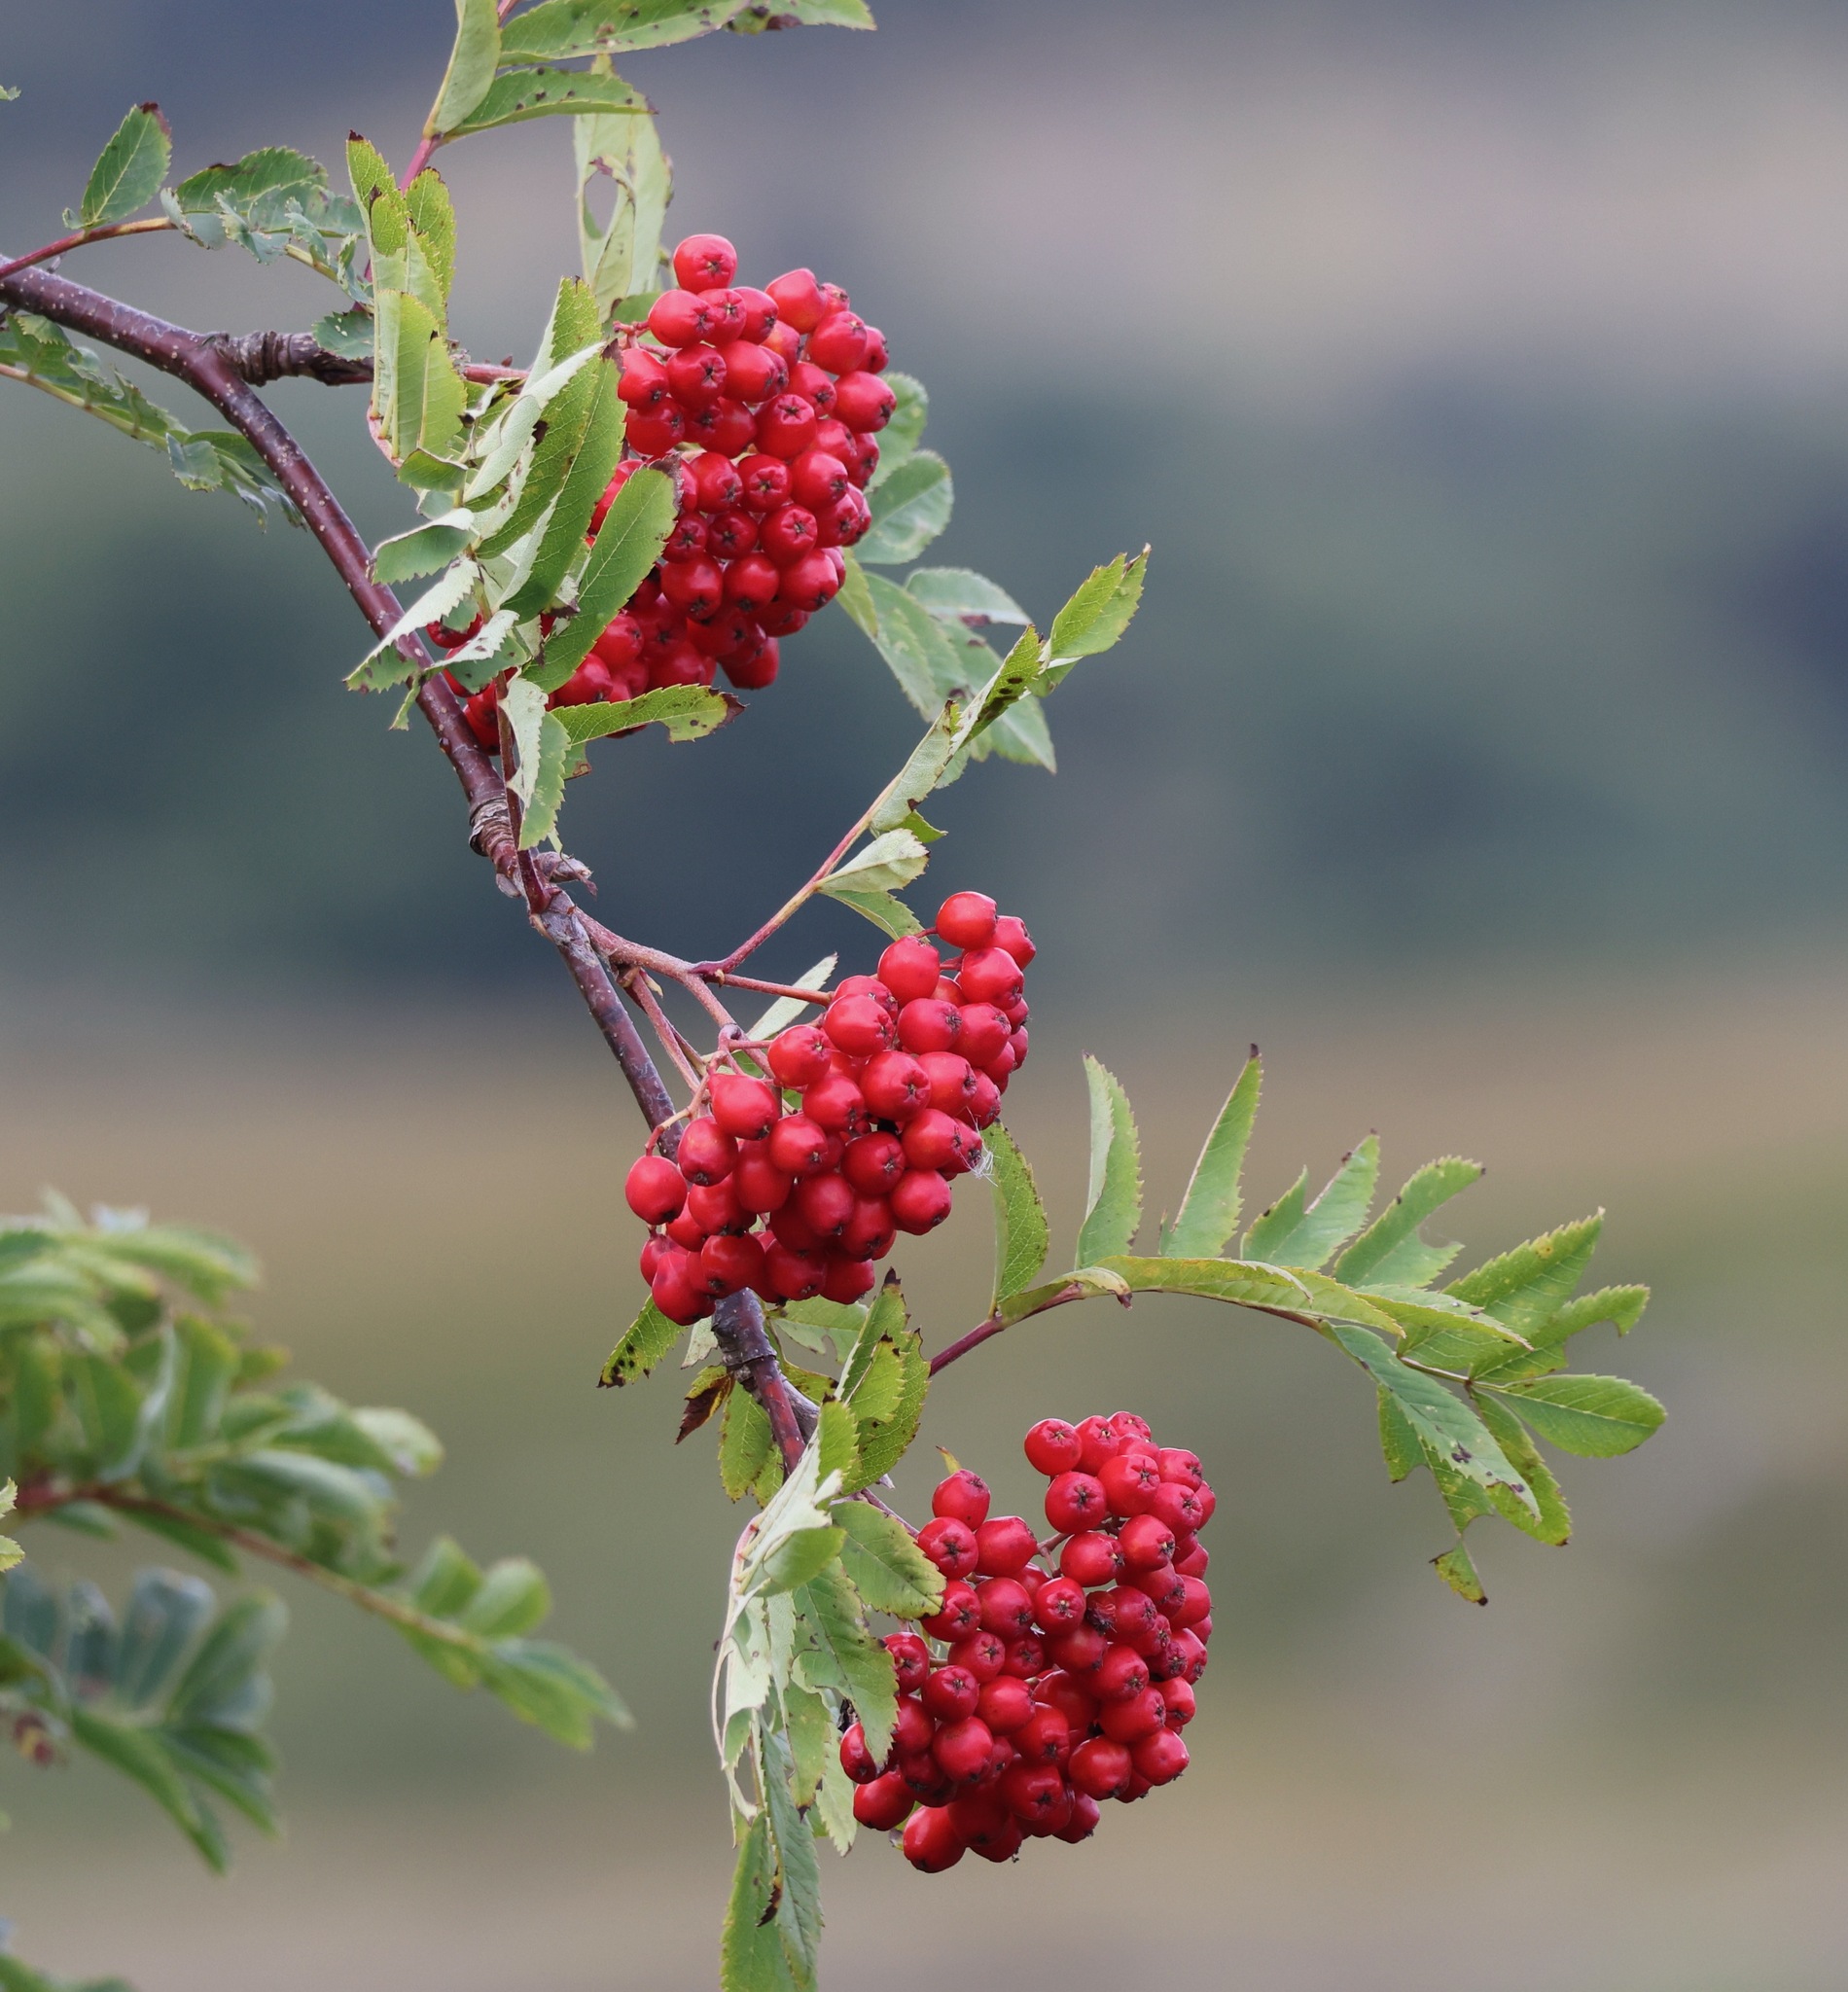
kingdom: Plantae
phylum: Tracheophyta
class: Magnoliopsida
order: Rosales
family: Rosaceae
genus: Sorbus
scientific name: Sorbus aucuparia
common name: Rowan
